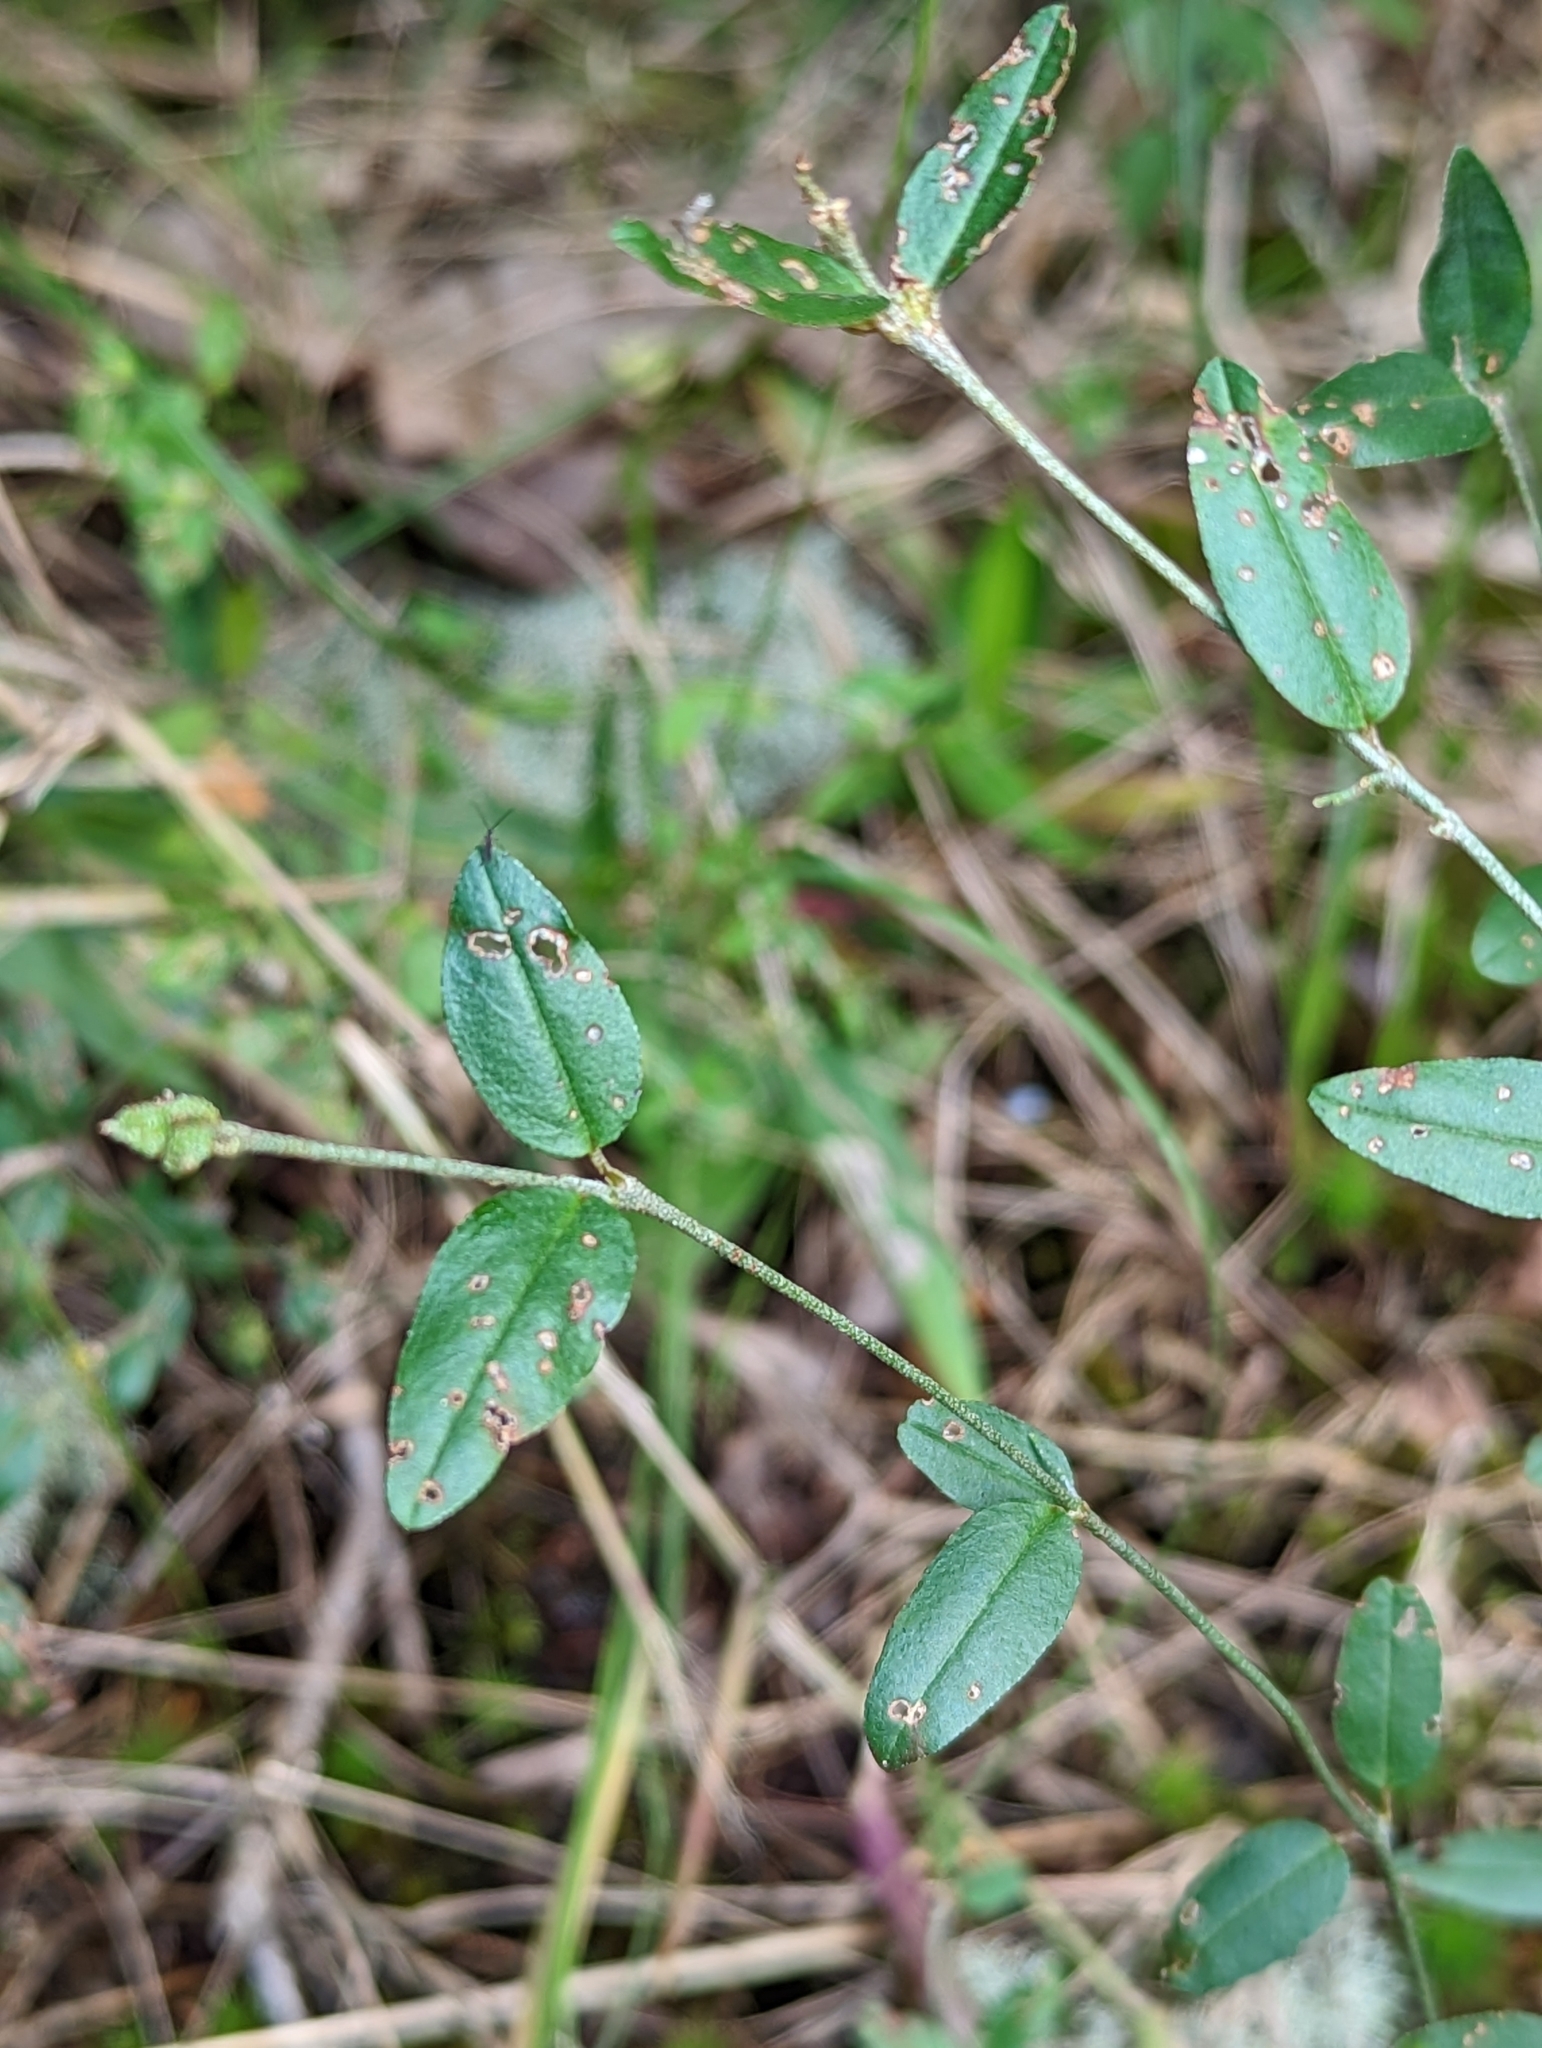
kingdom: Plantae
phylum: Tracheophyta
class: Magnoliopsida
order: Malpighiales
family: Euphorbiaceae
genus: Croton
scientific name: Croton michauxii
